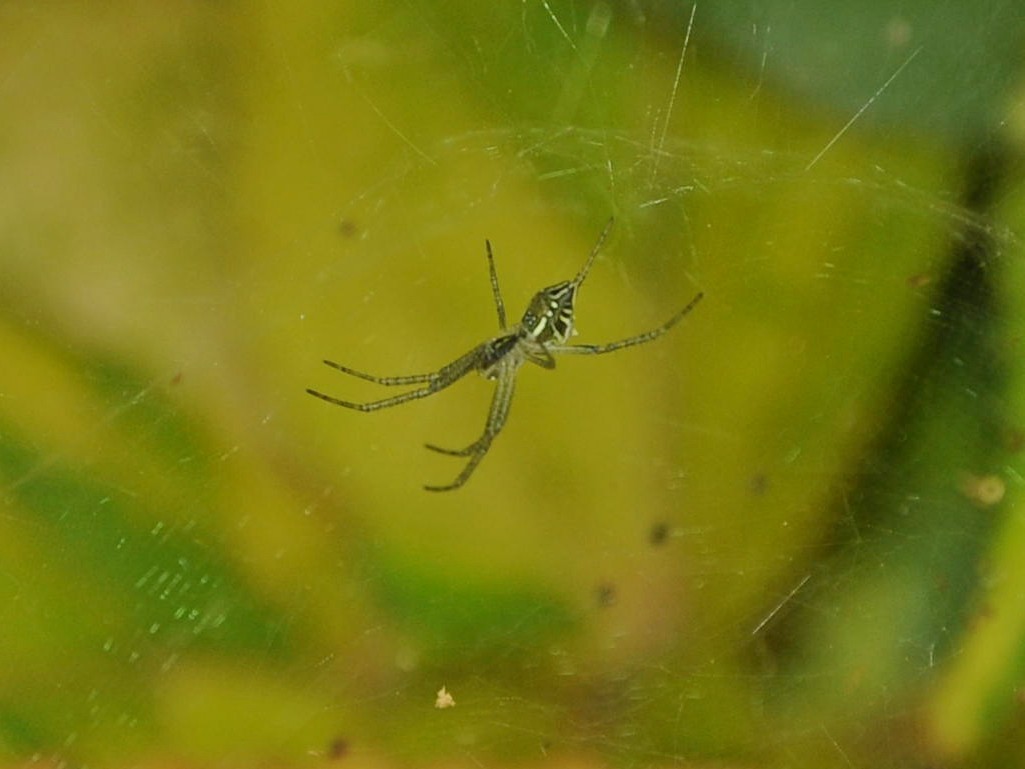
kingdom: Animalia
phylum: Arthropoda
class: Arachnida
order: Araneae
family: Araneidae
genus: Cyrtophora
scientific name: Cyrtophora cicatrosa
